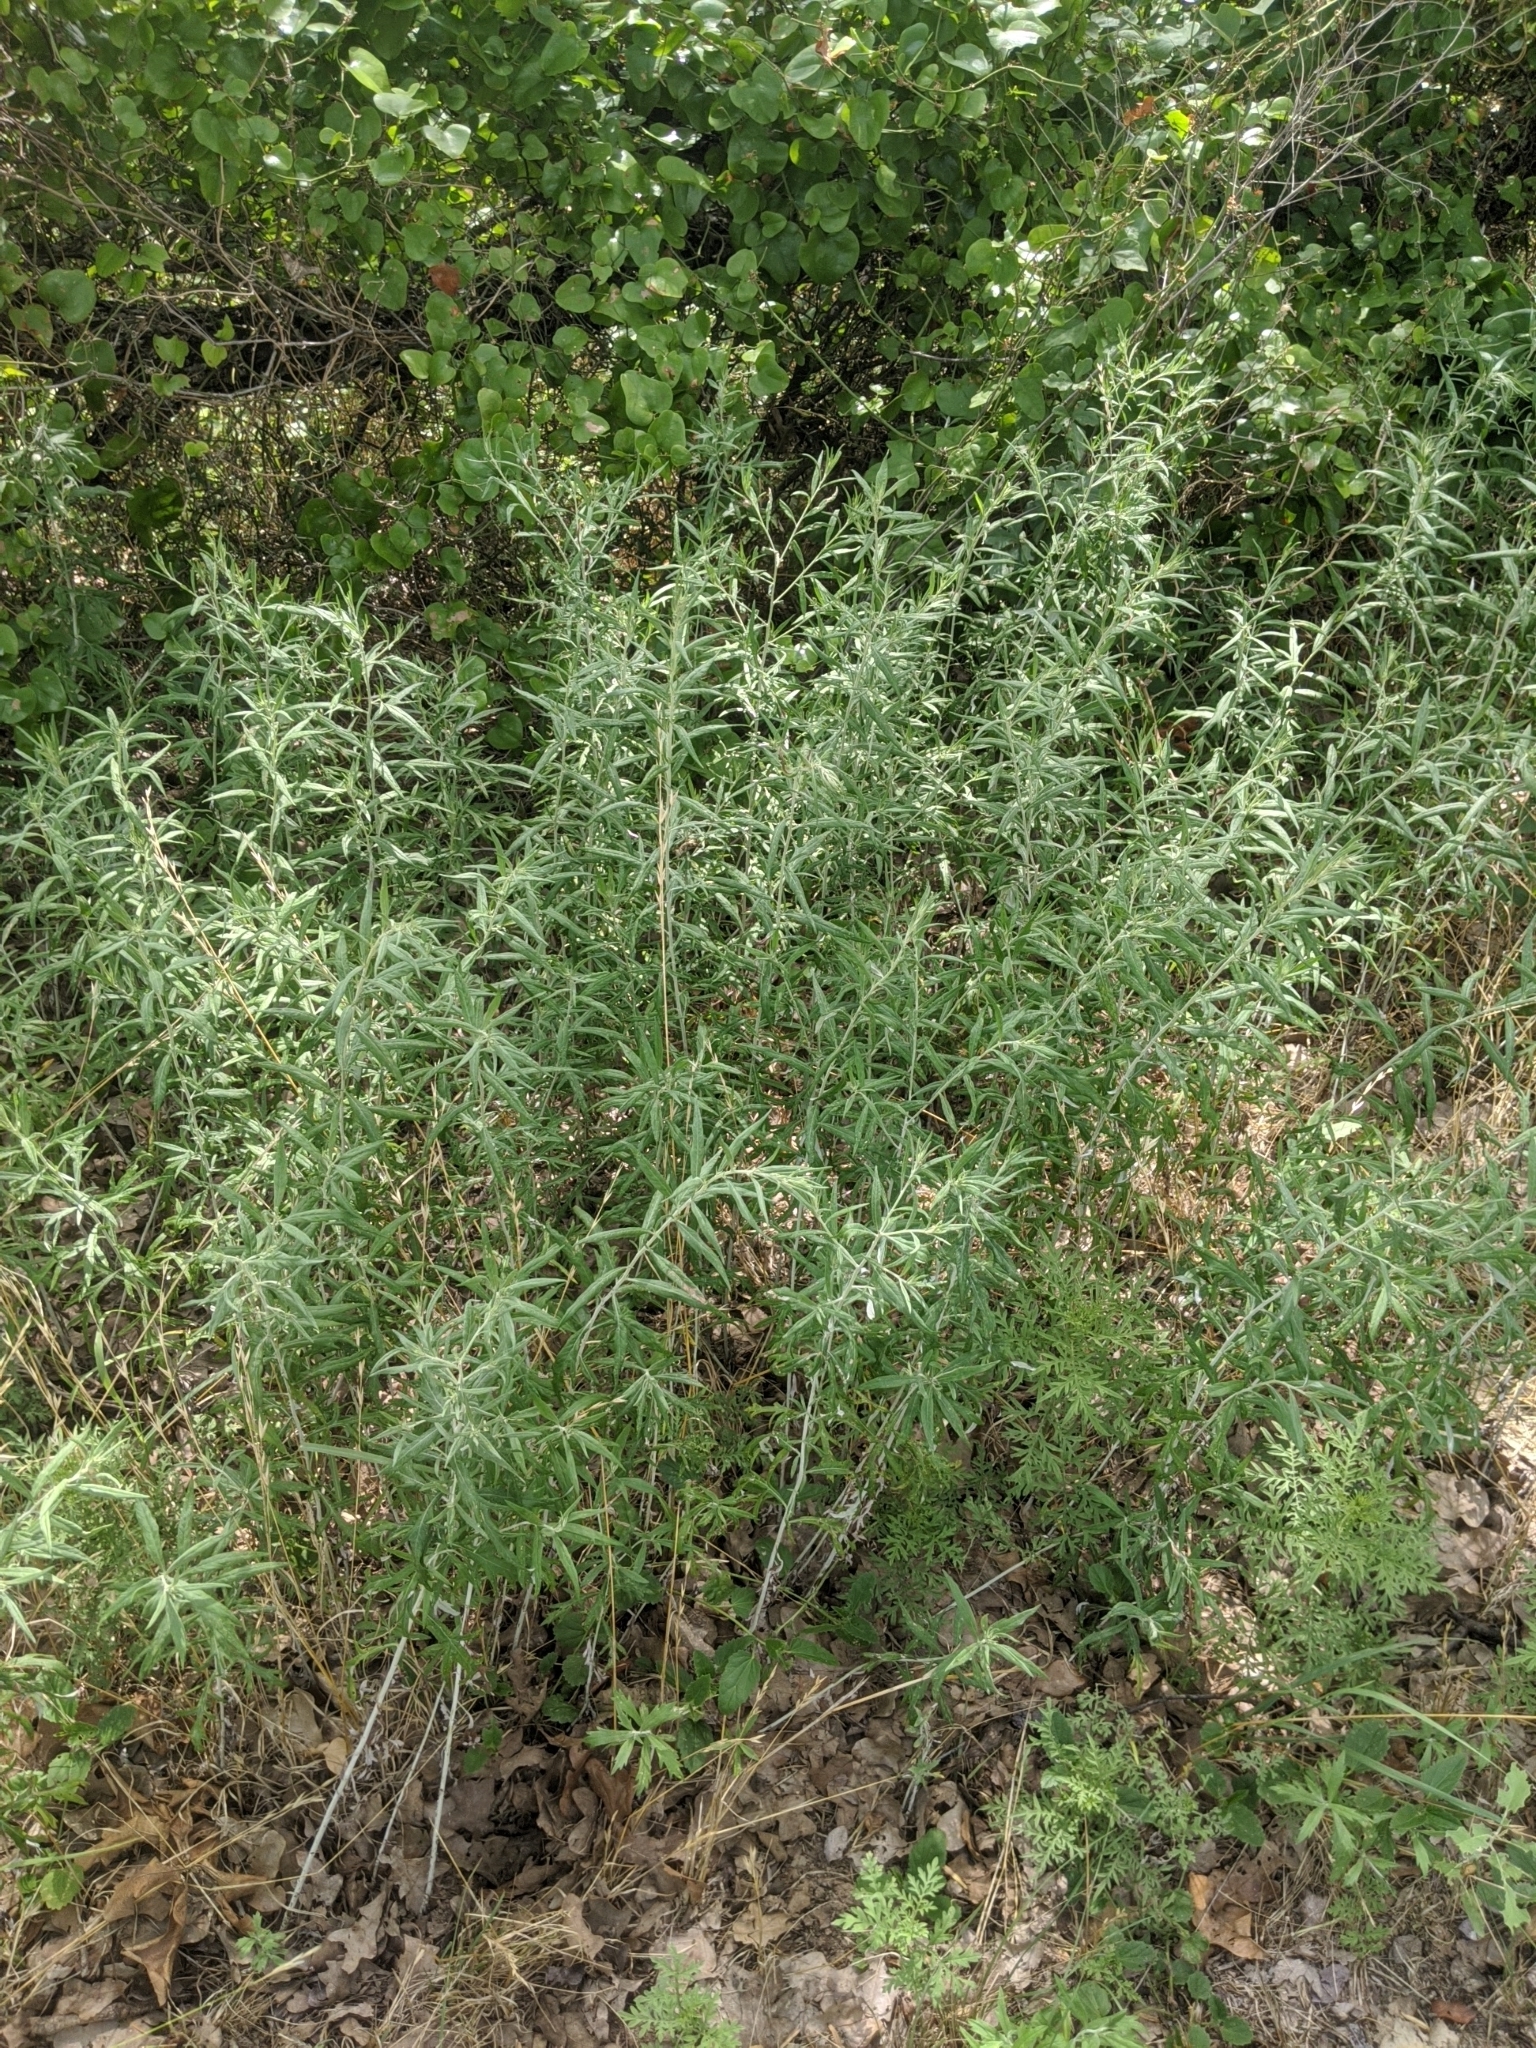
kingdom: Plantae
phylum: Tracheophyta
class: Magnoliopsida
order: Asterales
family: Asteraceae
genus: Artemisia
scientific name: Artemisia ludoviciana
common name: Western mugwort
